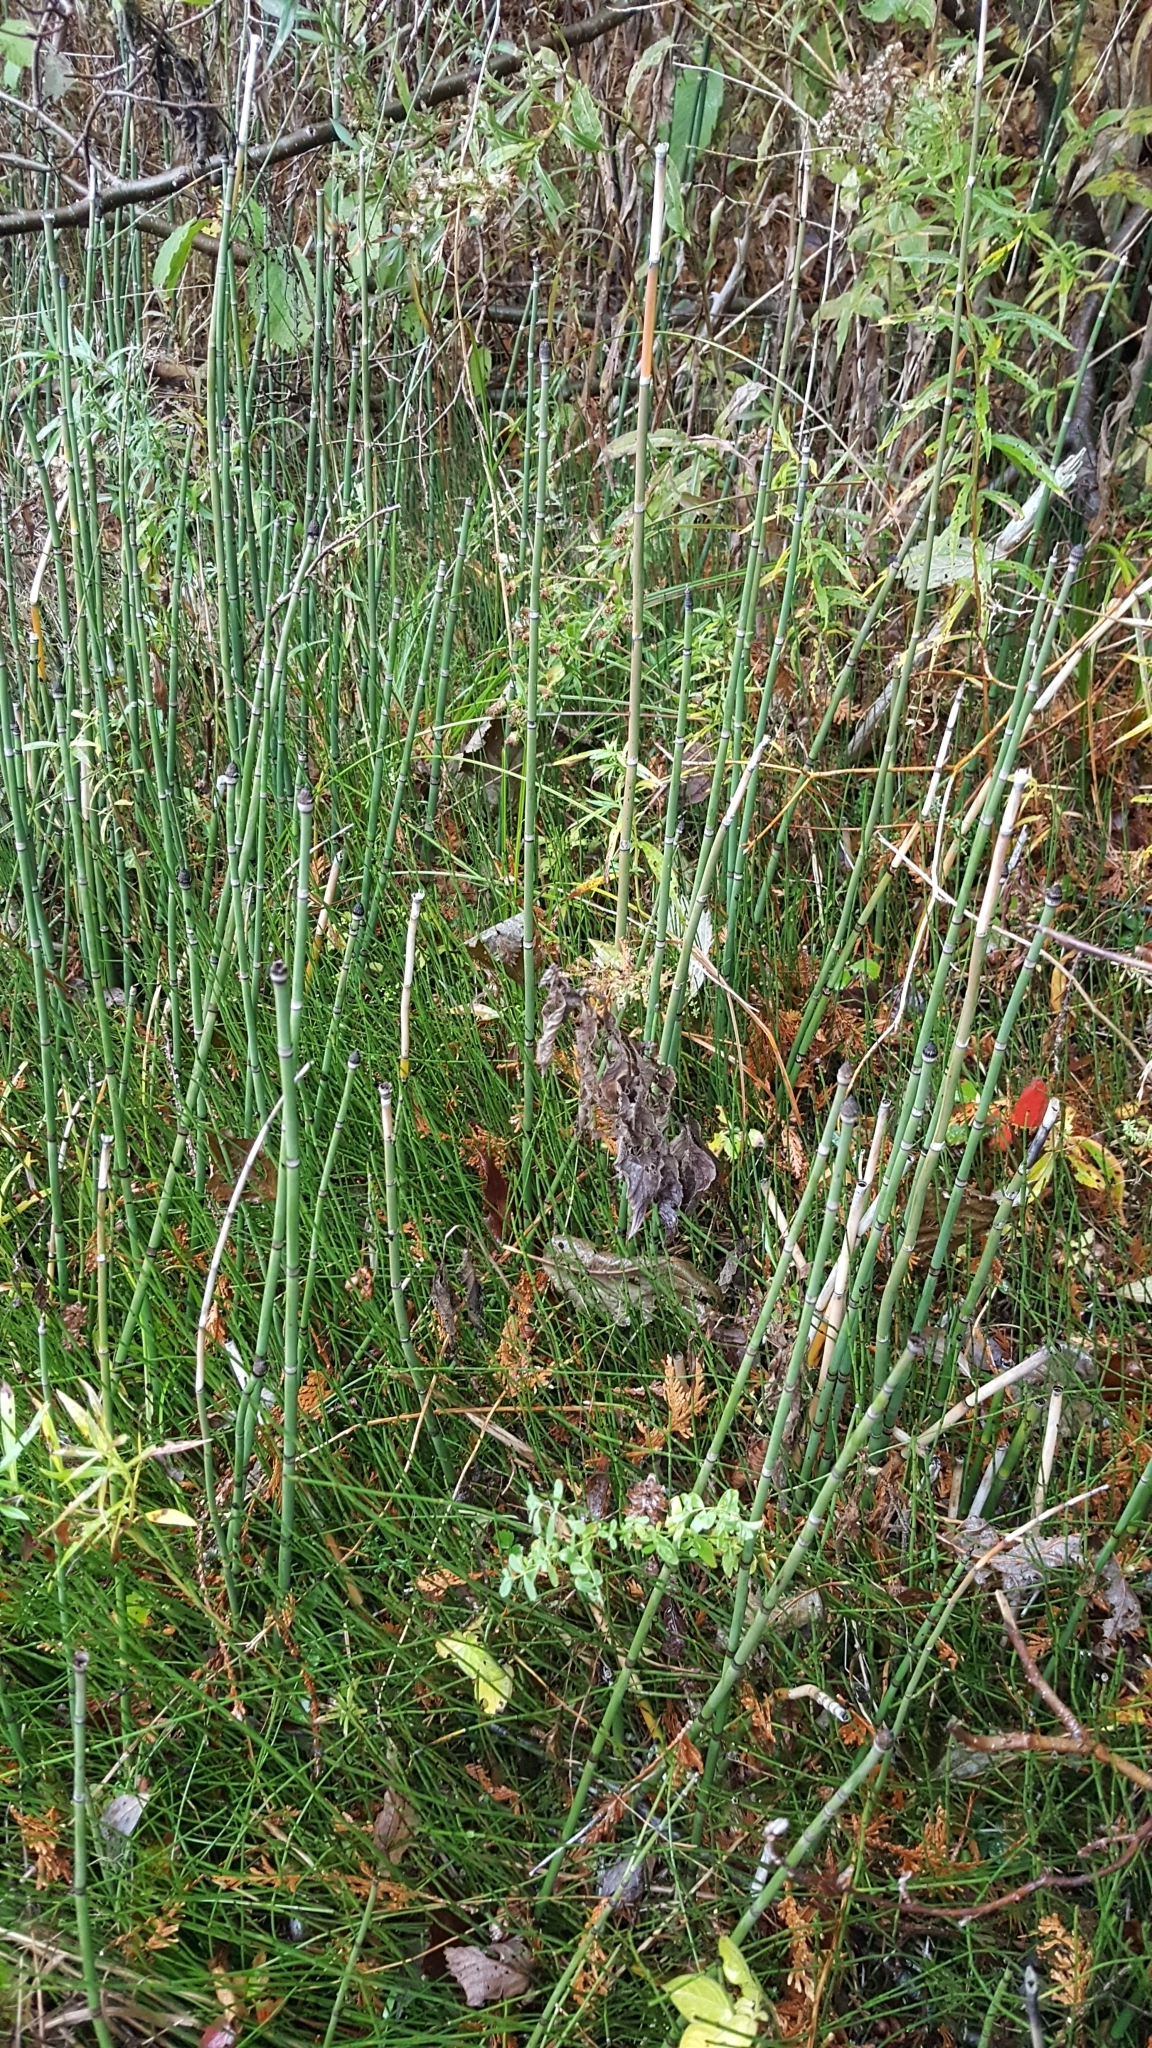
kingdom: Plantae
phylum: Tracheophyta
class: Polypodiopsida
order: Equisetales
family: Equisetaceae
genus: Equisetum
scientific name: Equisetum praealtum
